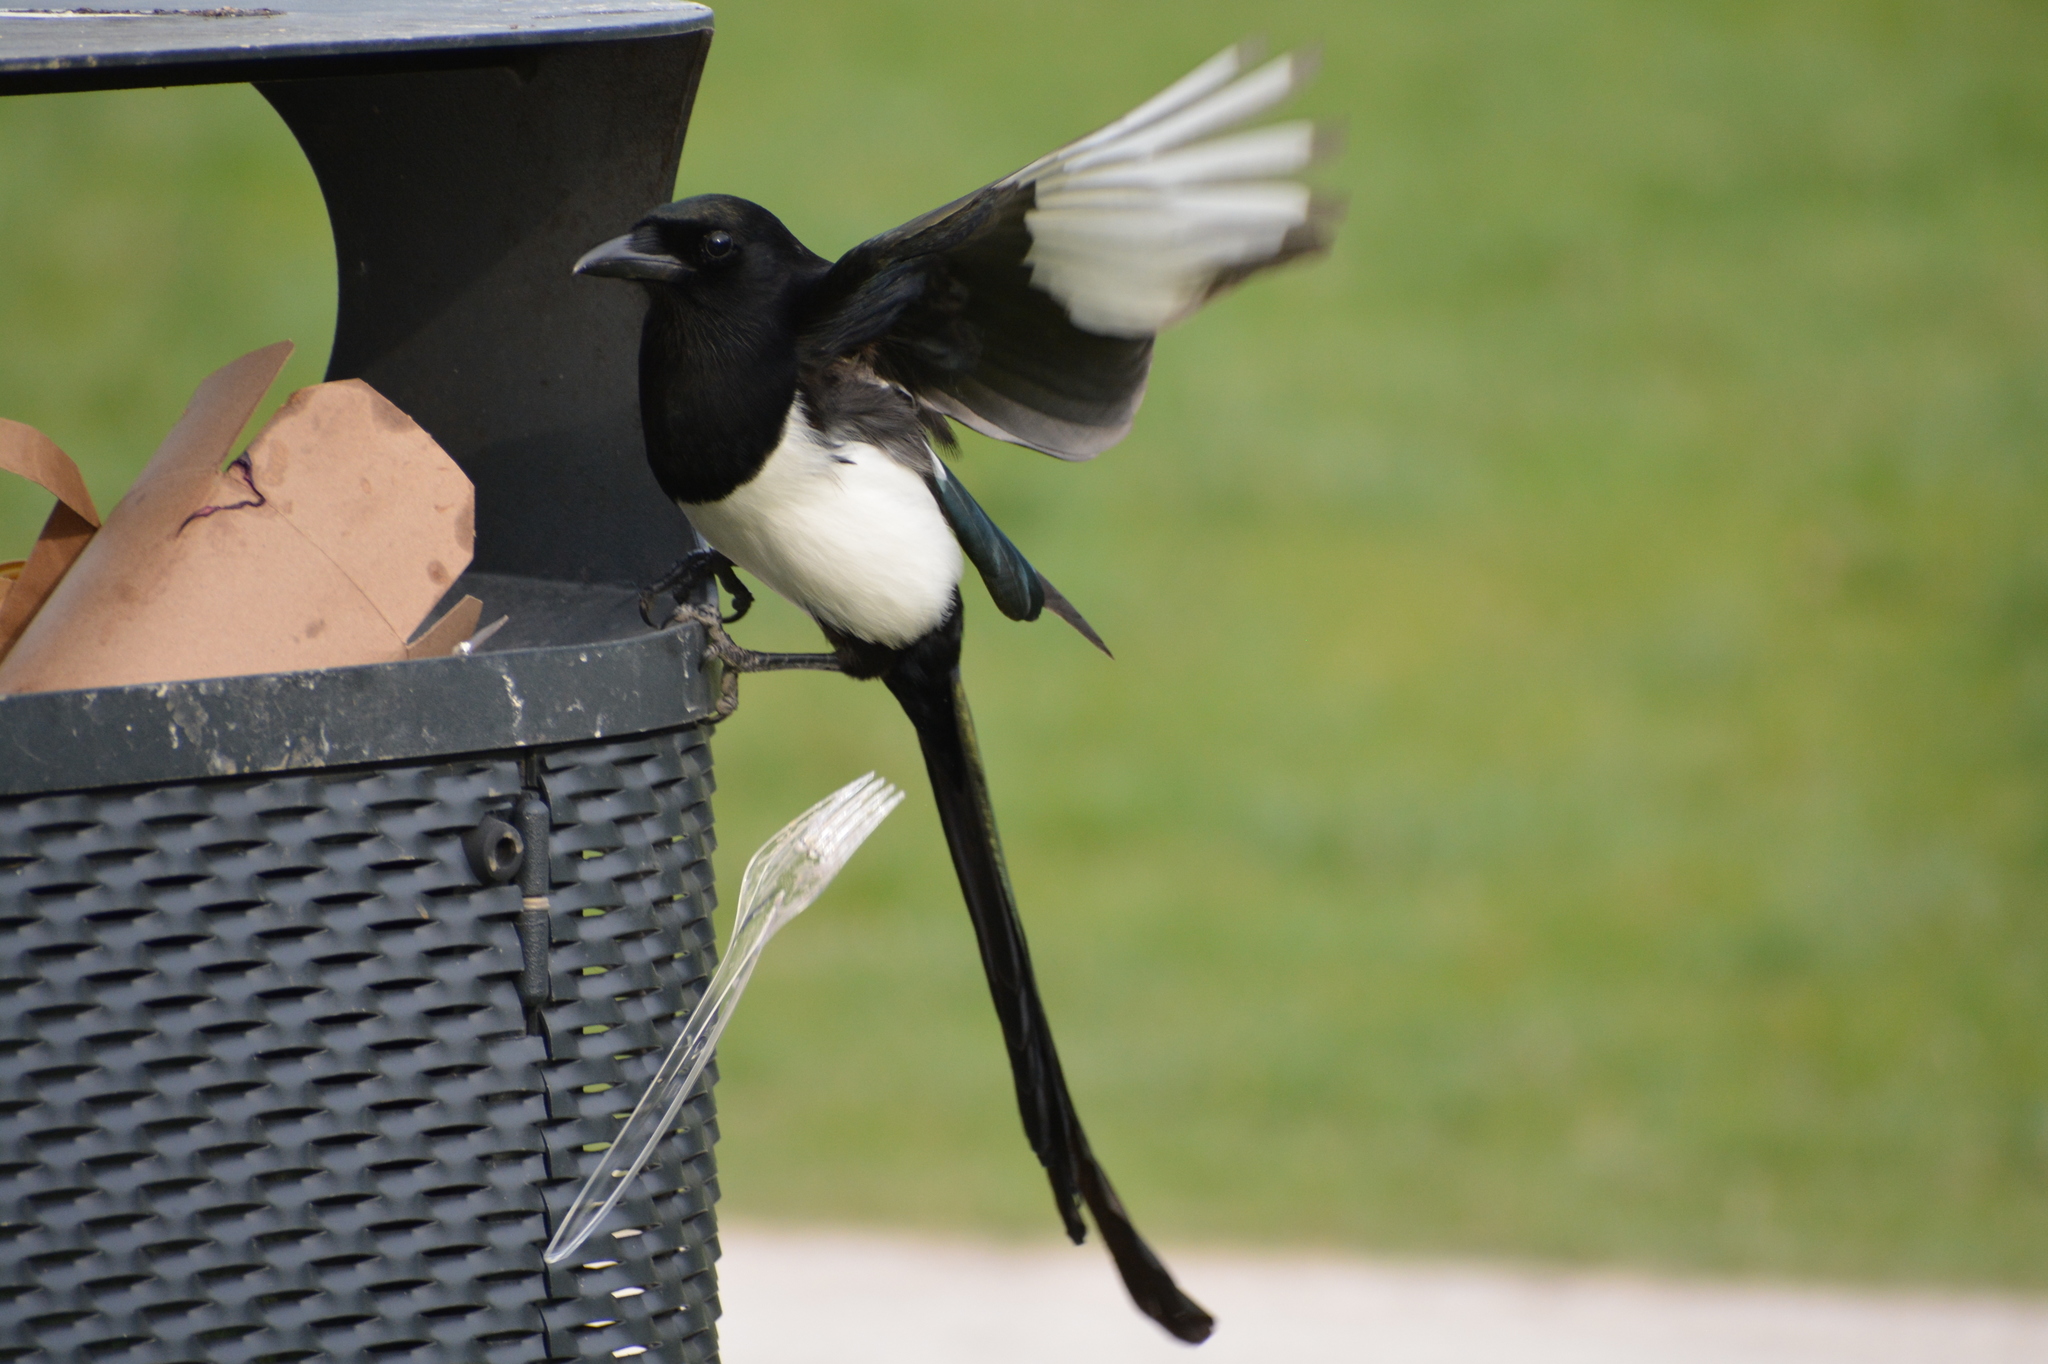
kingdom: Animalia
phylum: Chordata
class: Aves
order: Passeriformes
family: Corvidae
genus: Pica
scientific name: Pica pica
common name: Eurasian magpie
